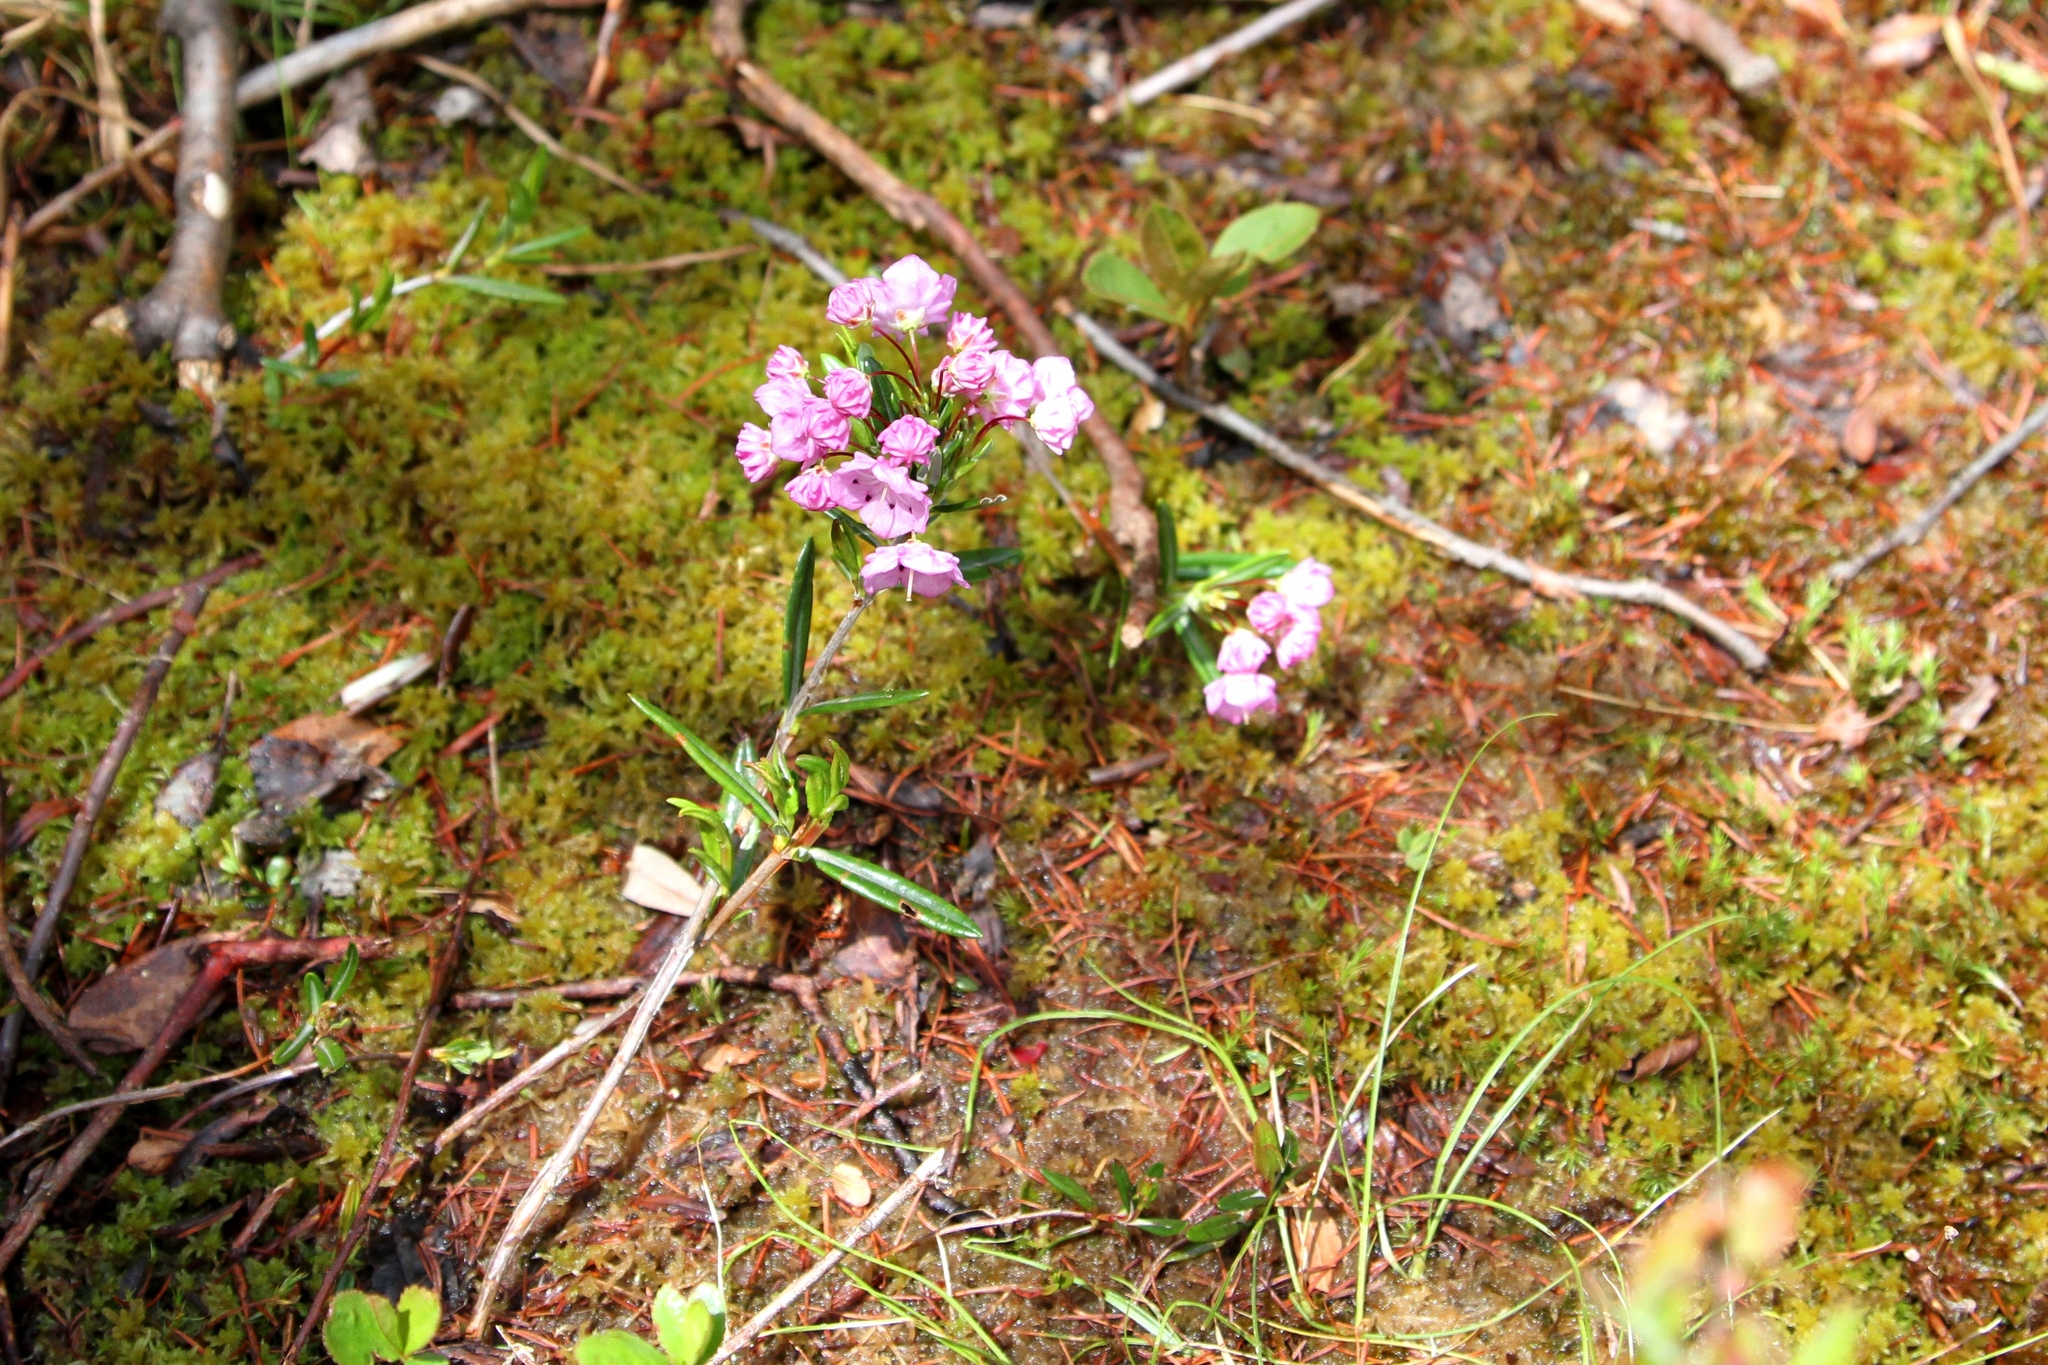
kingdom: Plantae
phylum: Tracheophyta
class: Magnoliopsida
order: Ericales
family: Ericaceae
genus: Kalmia
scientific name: Kalmia polifolia
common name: Bog-laurel
